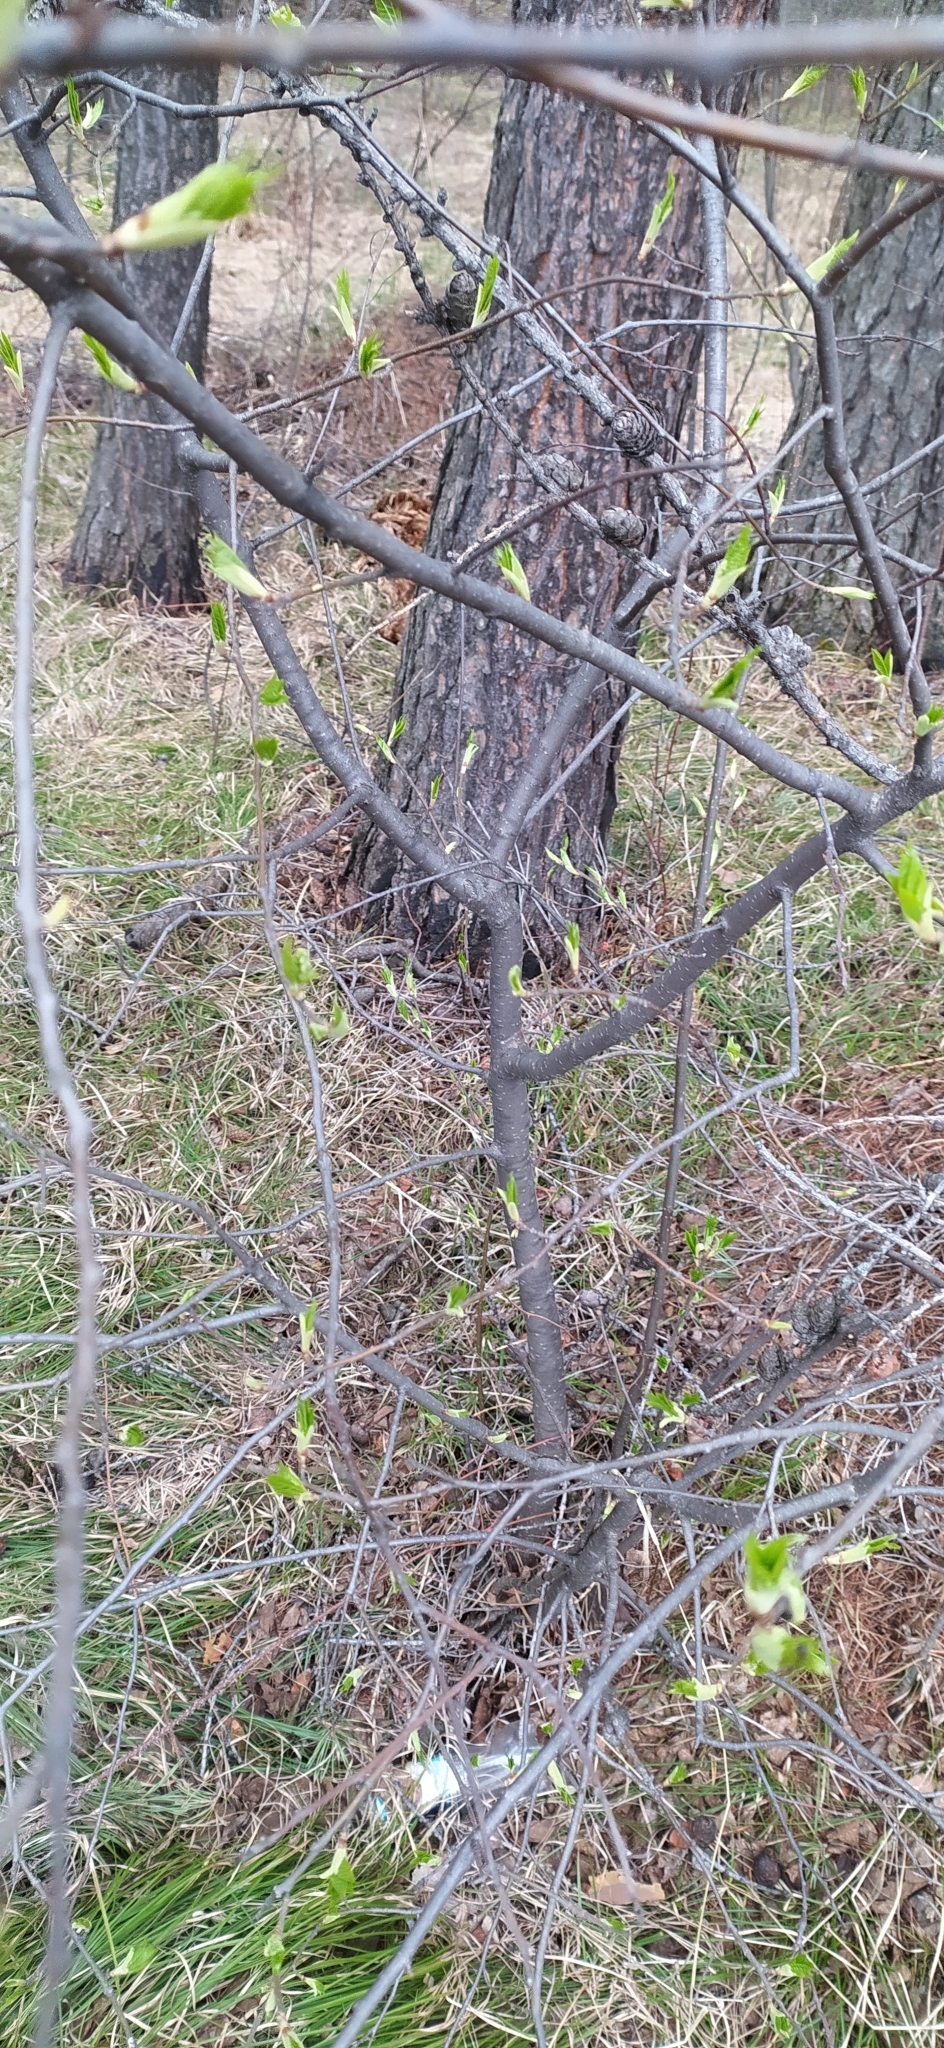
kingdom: Plantae
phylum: Tracheophyta
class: Magnoliopsida
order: Rosales
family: Rosaceae
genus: Prunus
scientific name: Prunus padus
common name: Bird cherry
